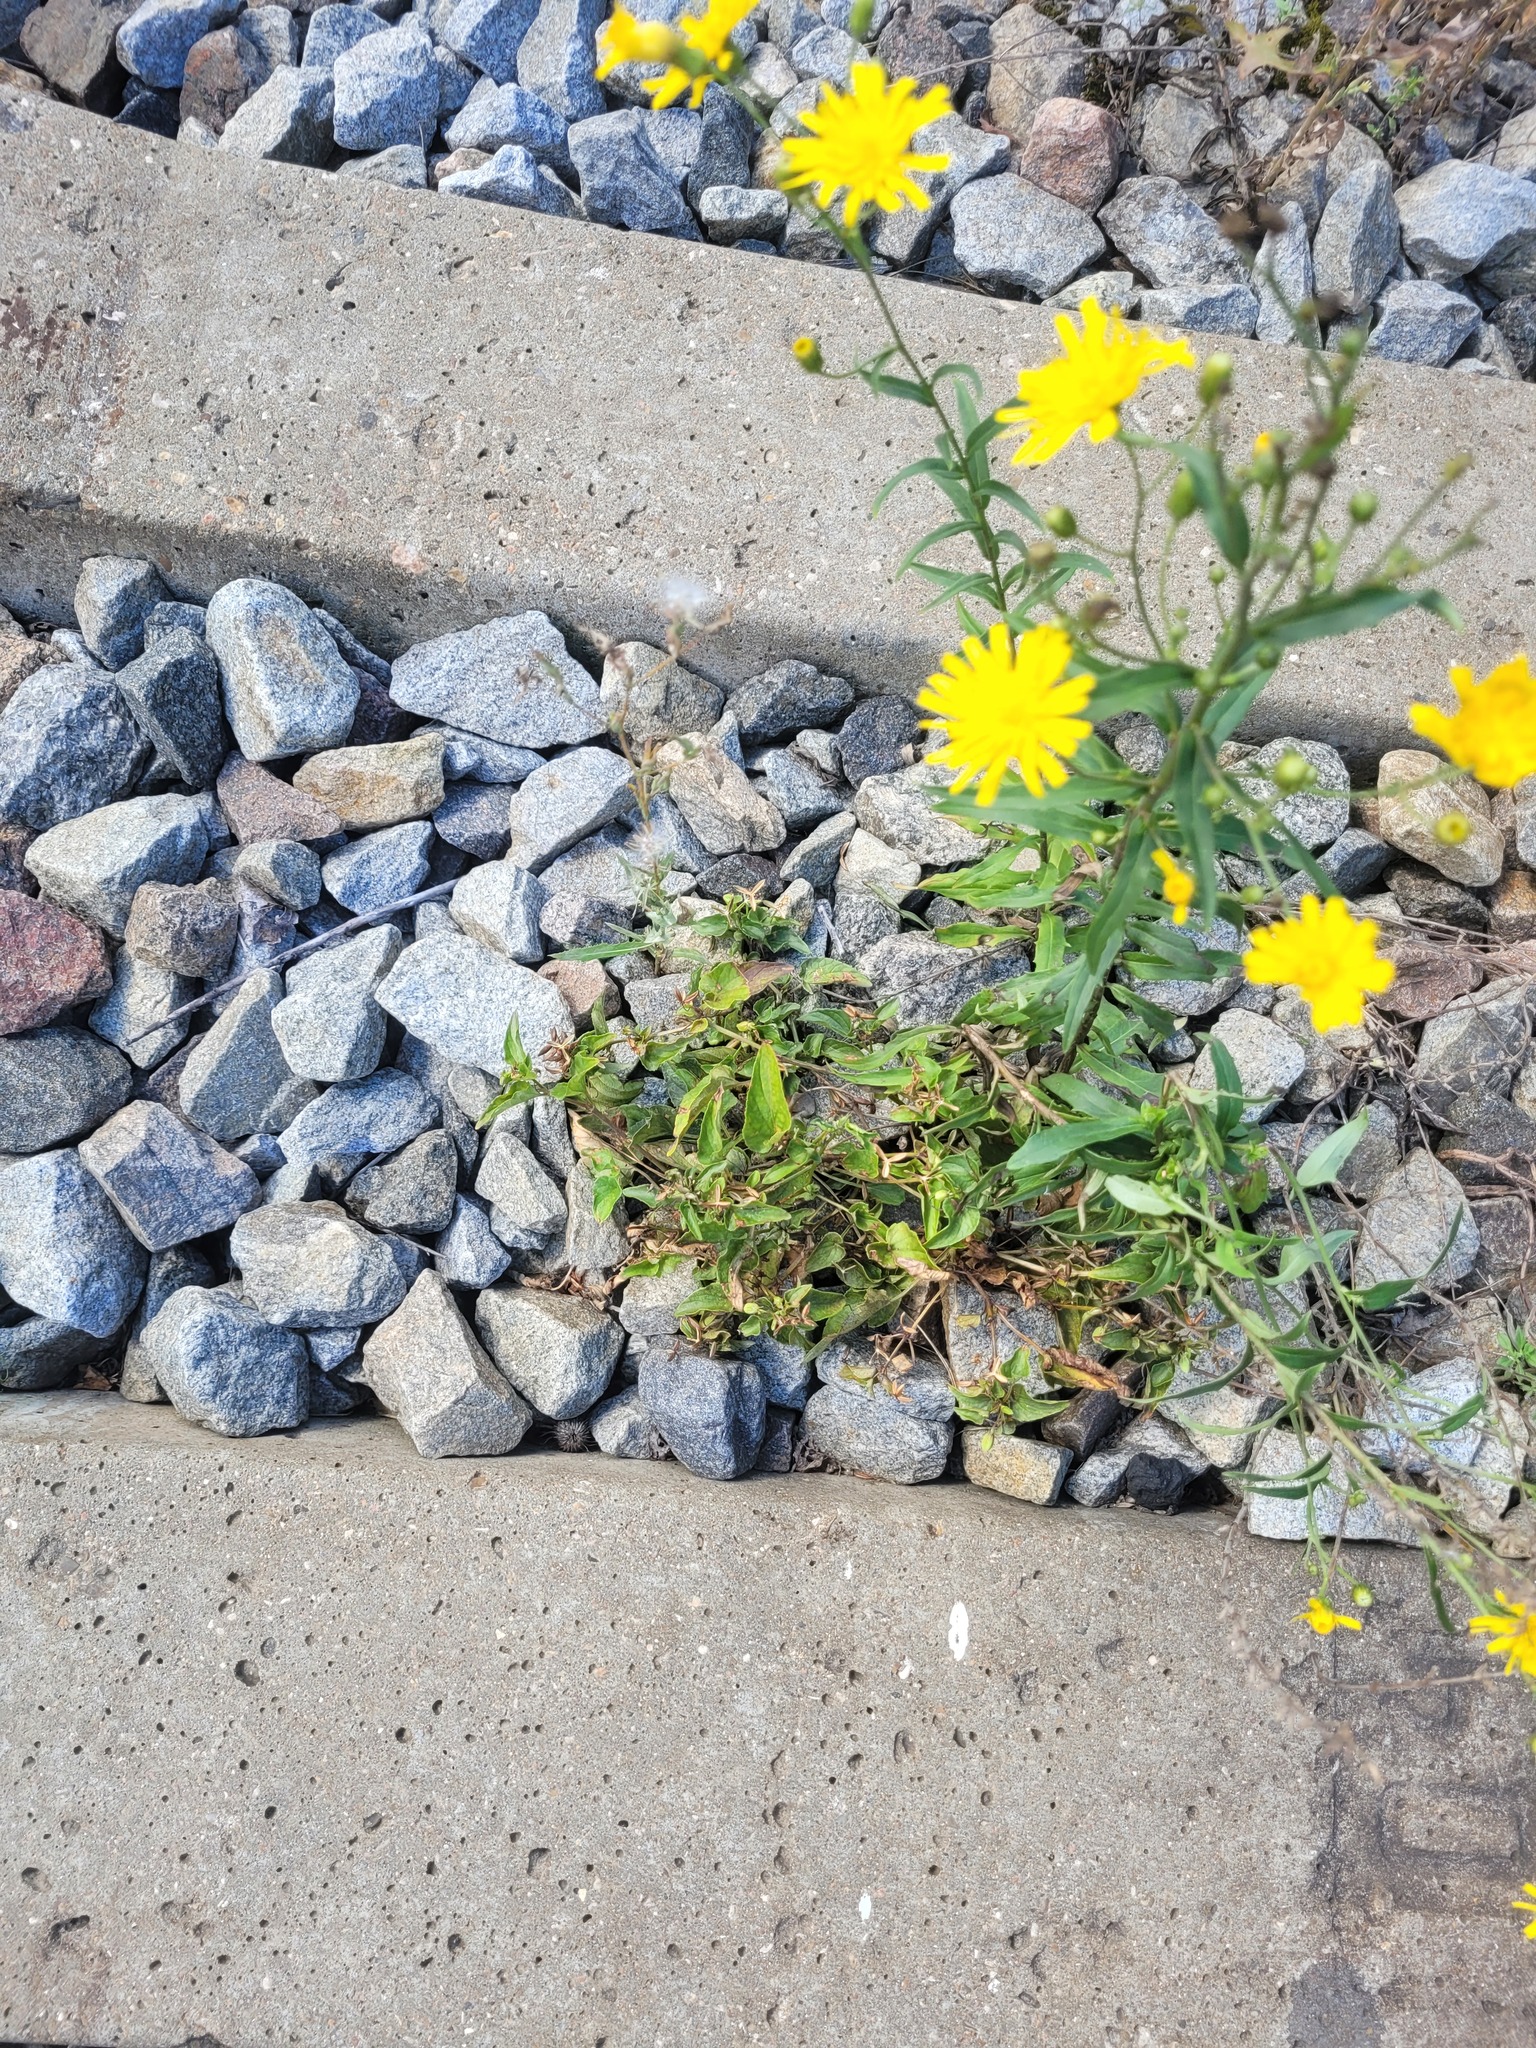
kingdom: Plantae
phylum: Tracheophyta
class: Magnoliopsida
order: Malpighiales
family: Violaceae
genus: Viola
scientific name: Viola canina
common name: Heath dog-violet
